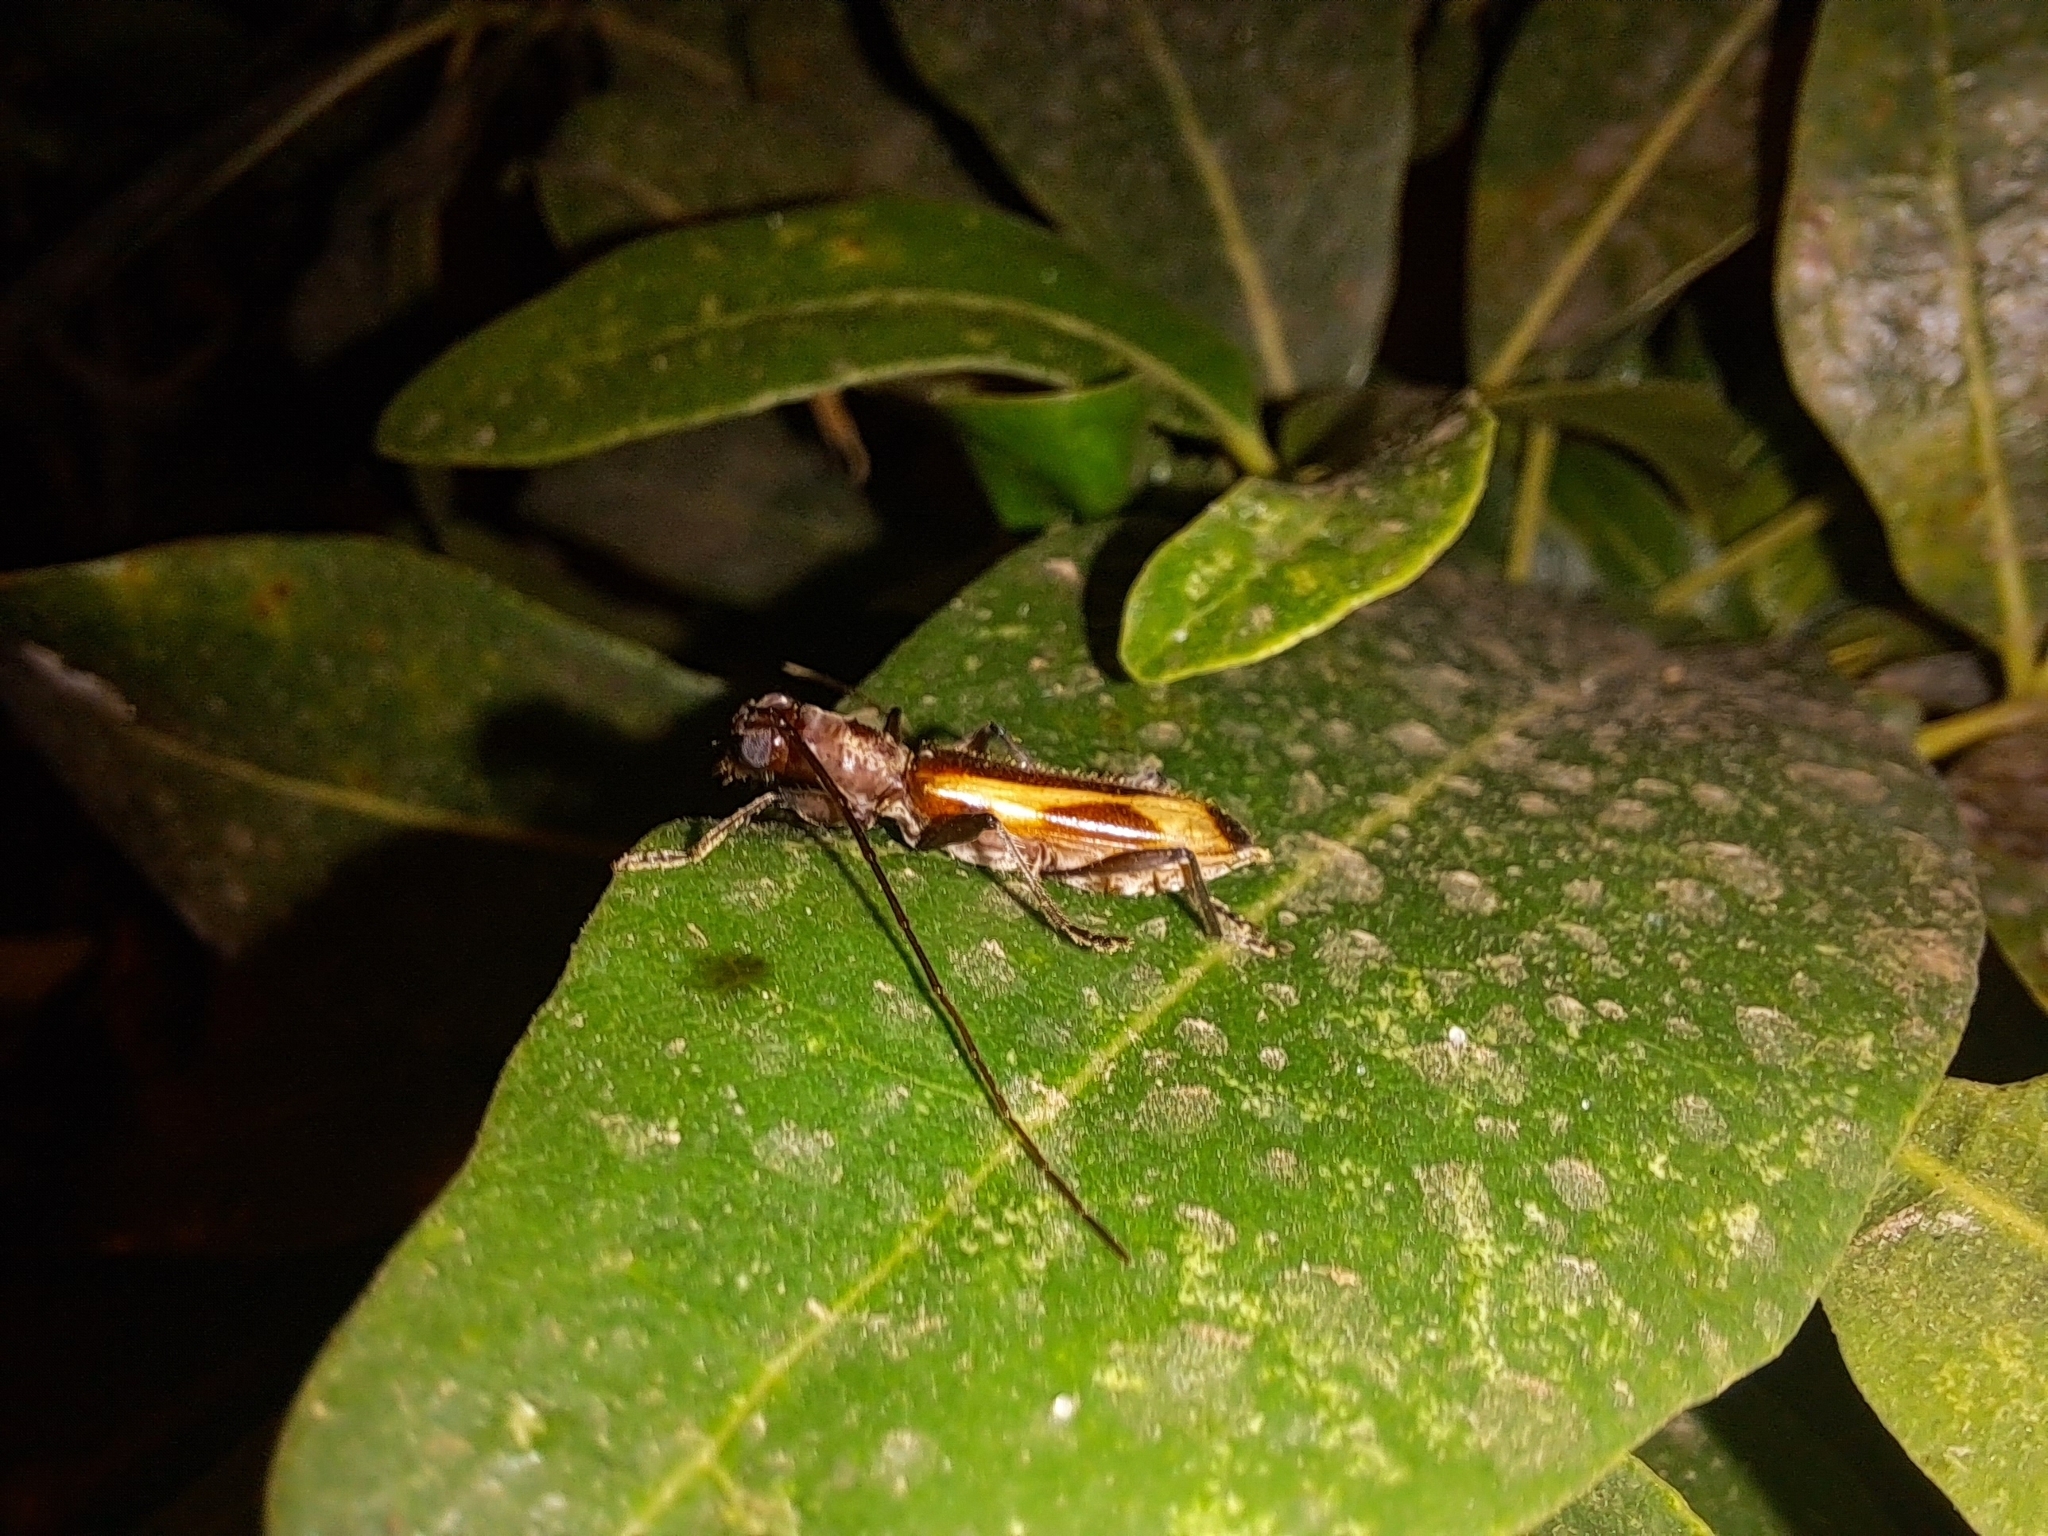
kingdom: Animalia
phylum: Arthropoda
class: Insecta
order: Coleoptera
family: Cerambycidae
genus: Thoracibidion
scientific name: Thoracibidion buquetii
